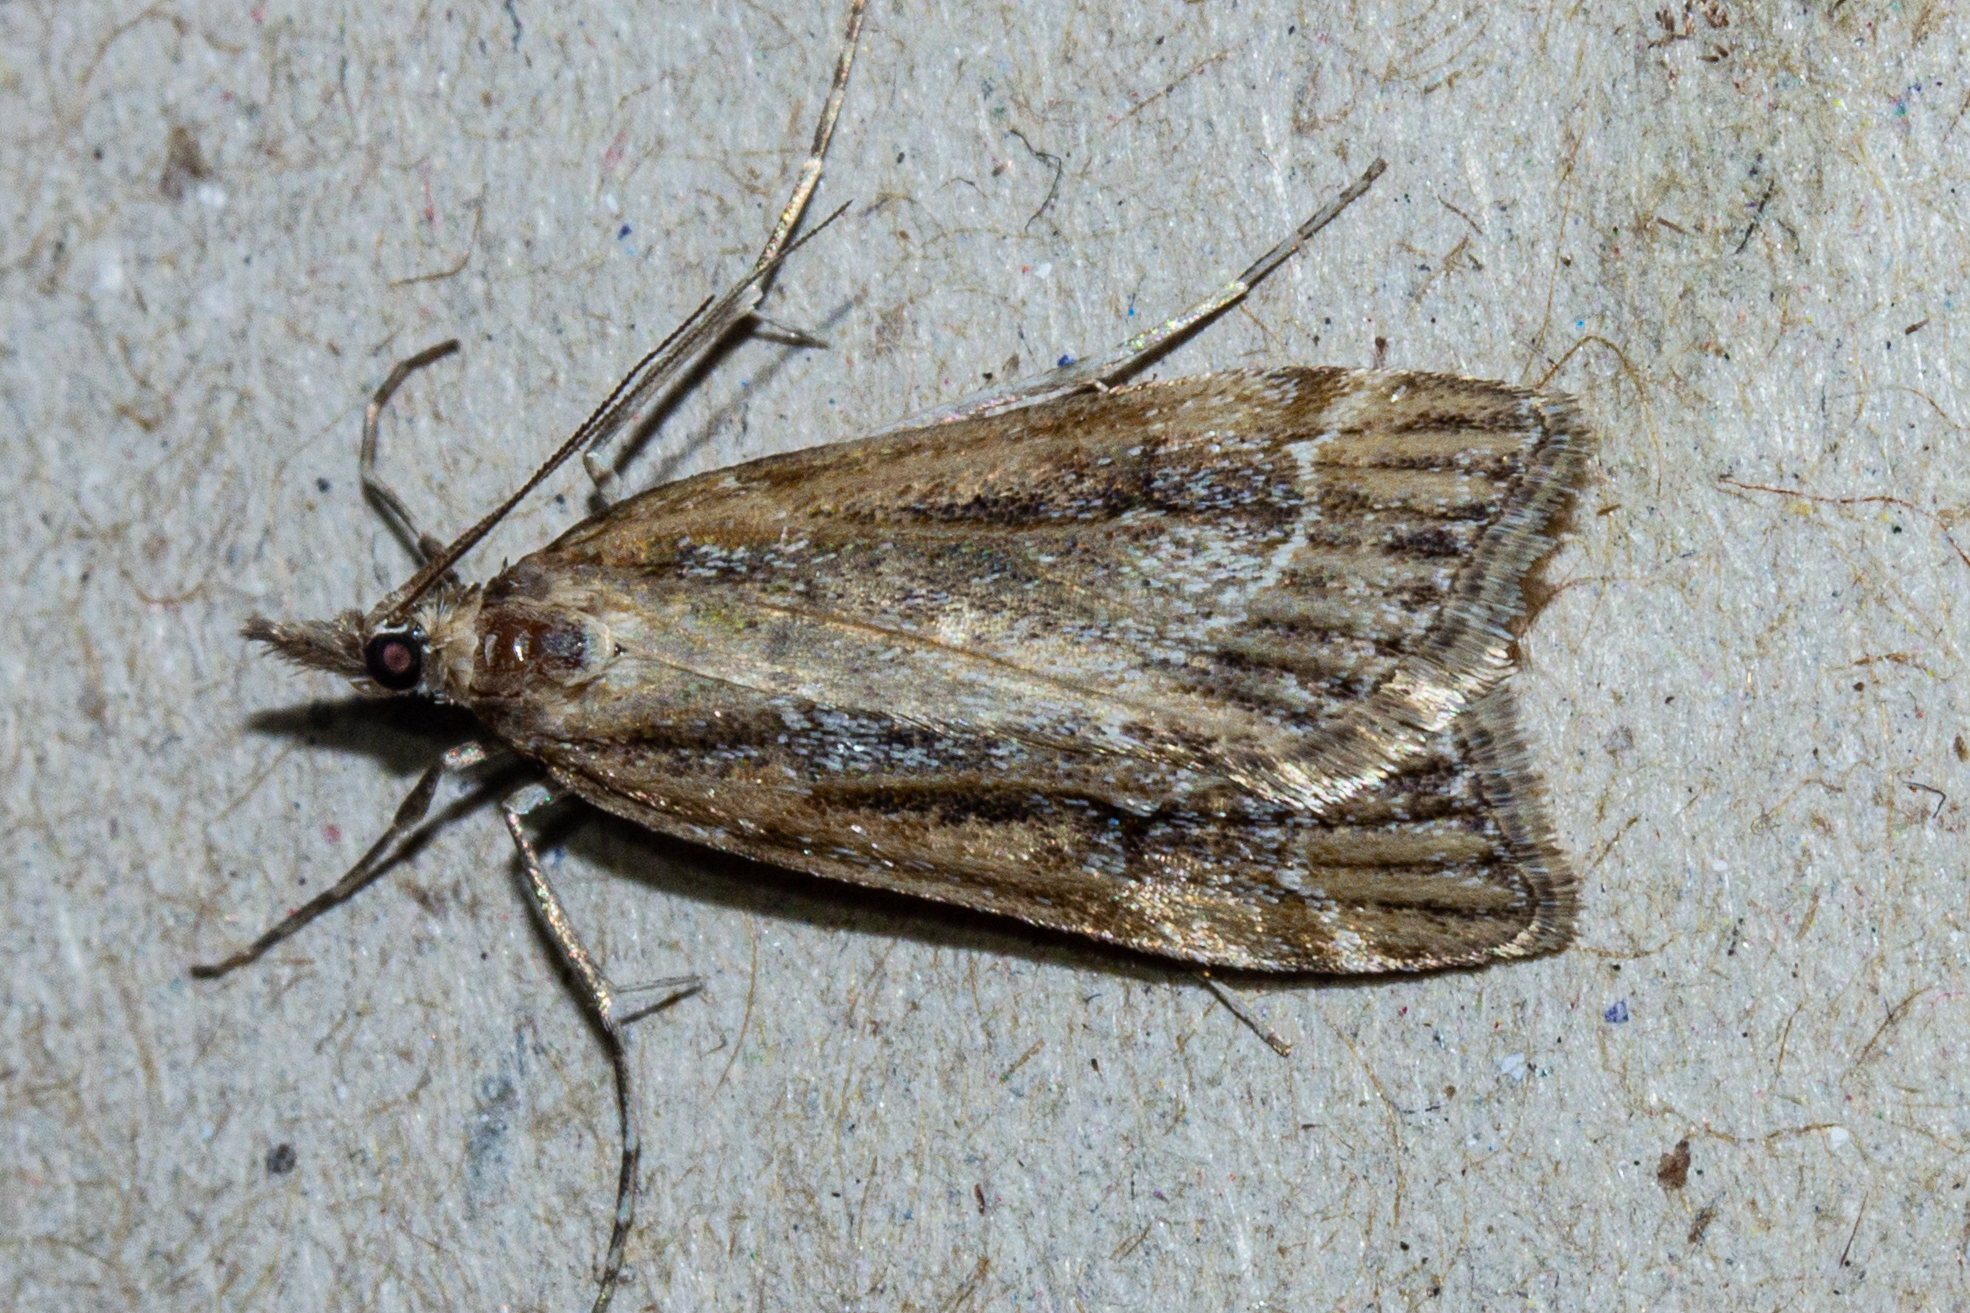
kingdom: Animalia
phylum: Arthropoda
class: Insecta
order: Lepidoptera
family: Crambidae
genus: Eudonia
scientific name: Eudonia octophora
